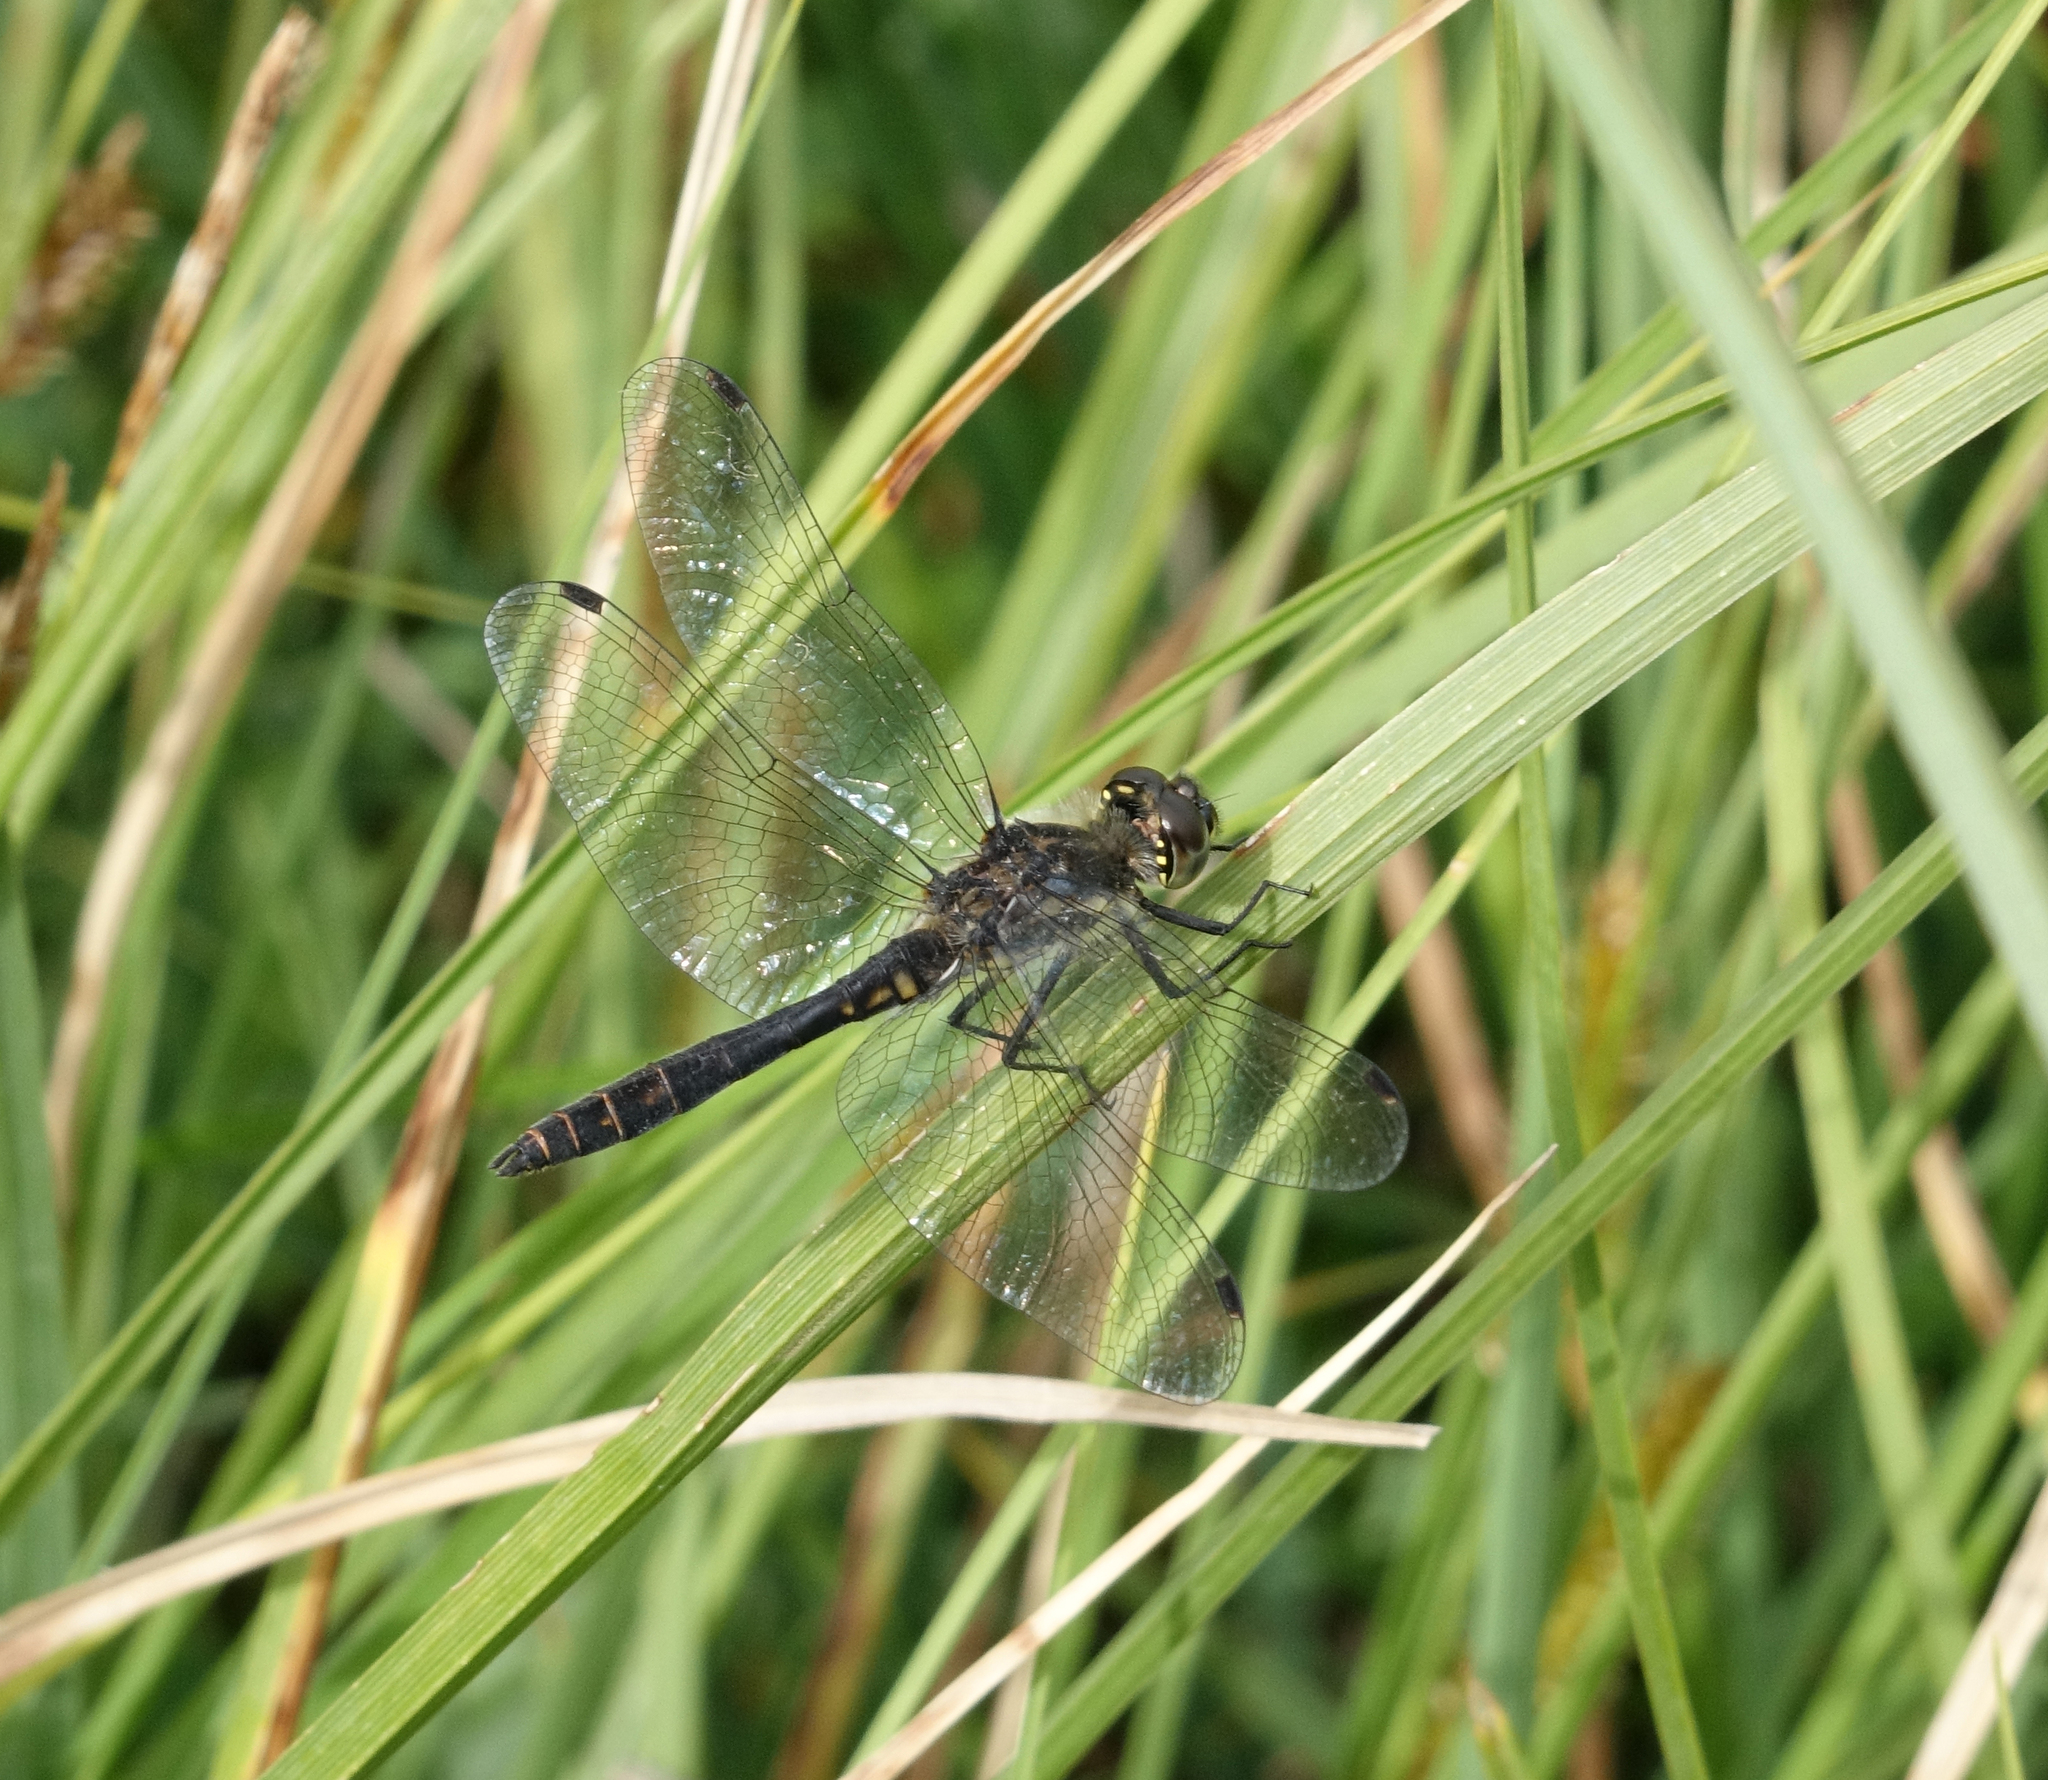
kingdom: Animalia
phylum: Arthropoda
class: Insecta
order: Odonata
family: Libellulidae
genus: Sympetrum
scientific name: Sympetrum danae
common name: Black darter
